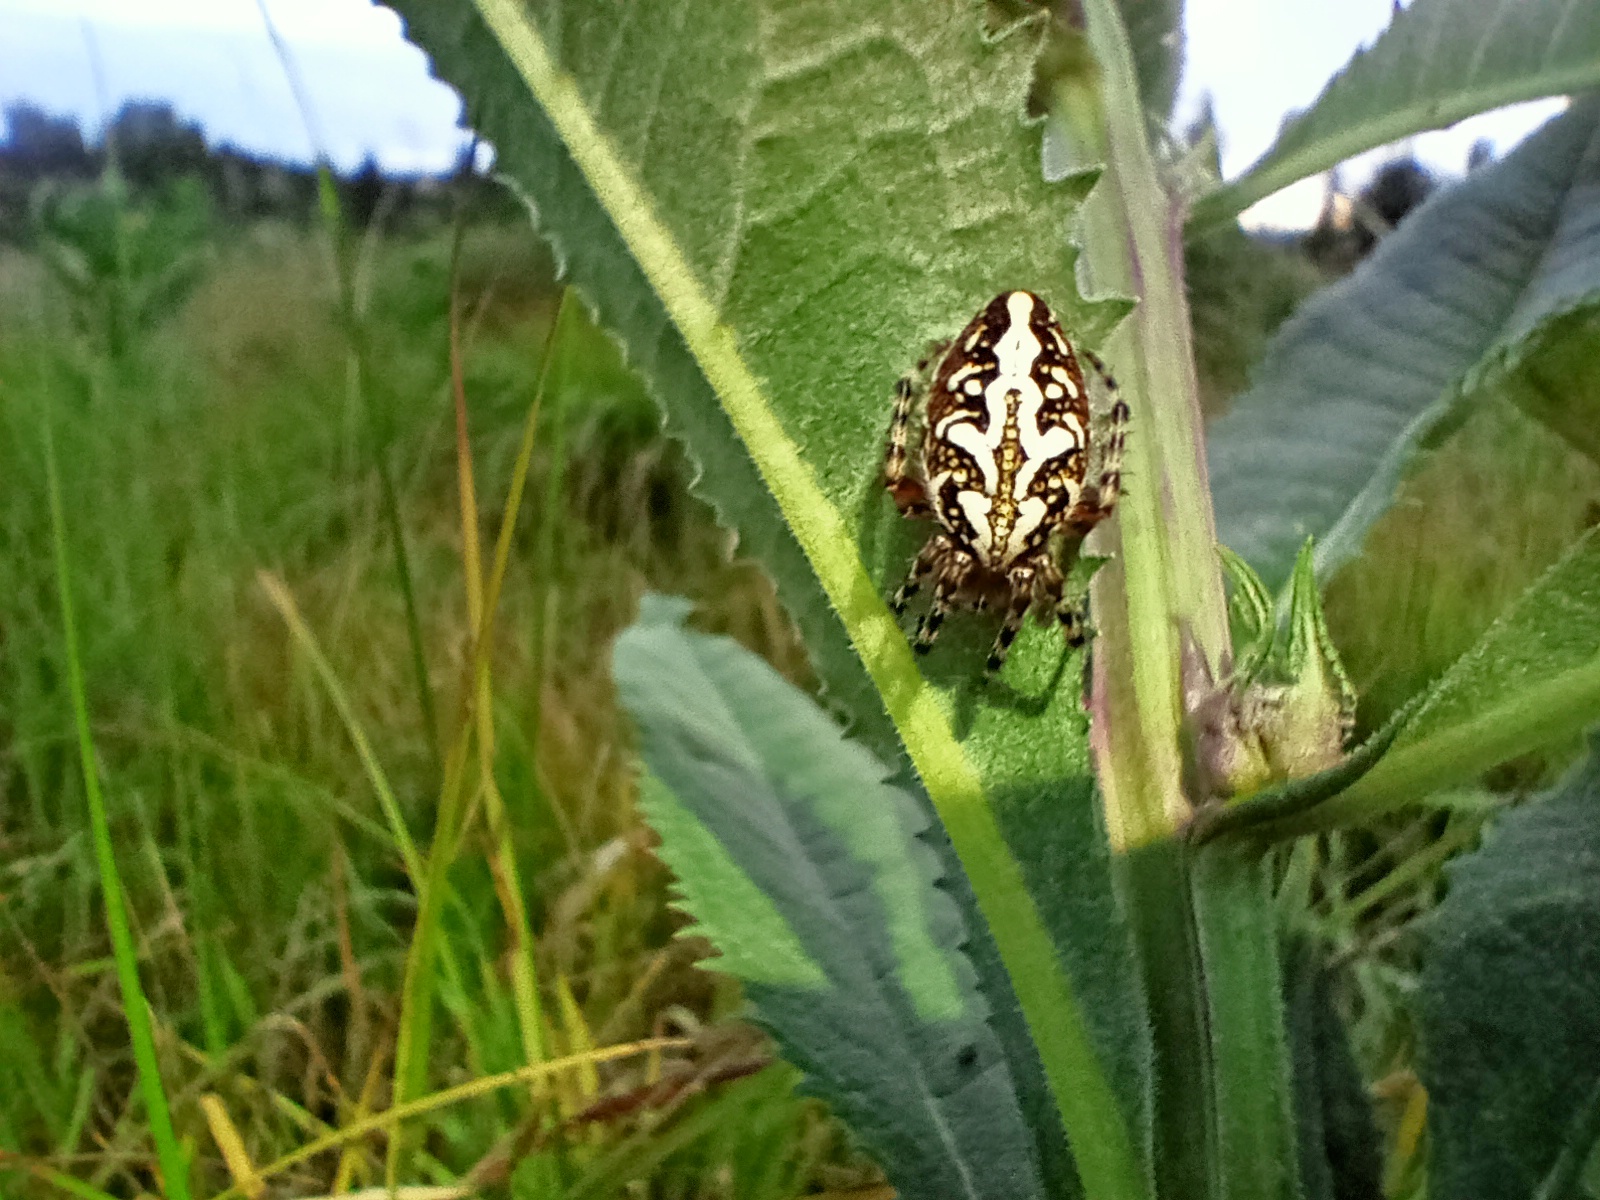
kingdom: Animalia
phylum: Arthropoda
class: Arachnida
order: Araneae
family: Araneidae
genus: Aculepeira
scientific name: Aculepeira ceropegia
